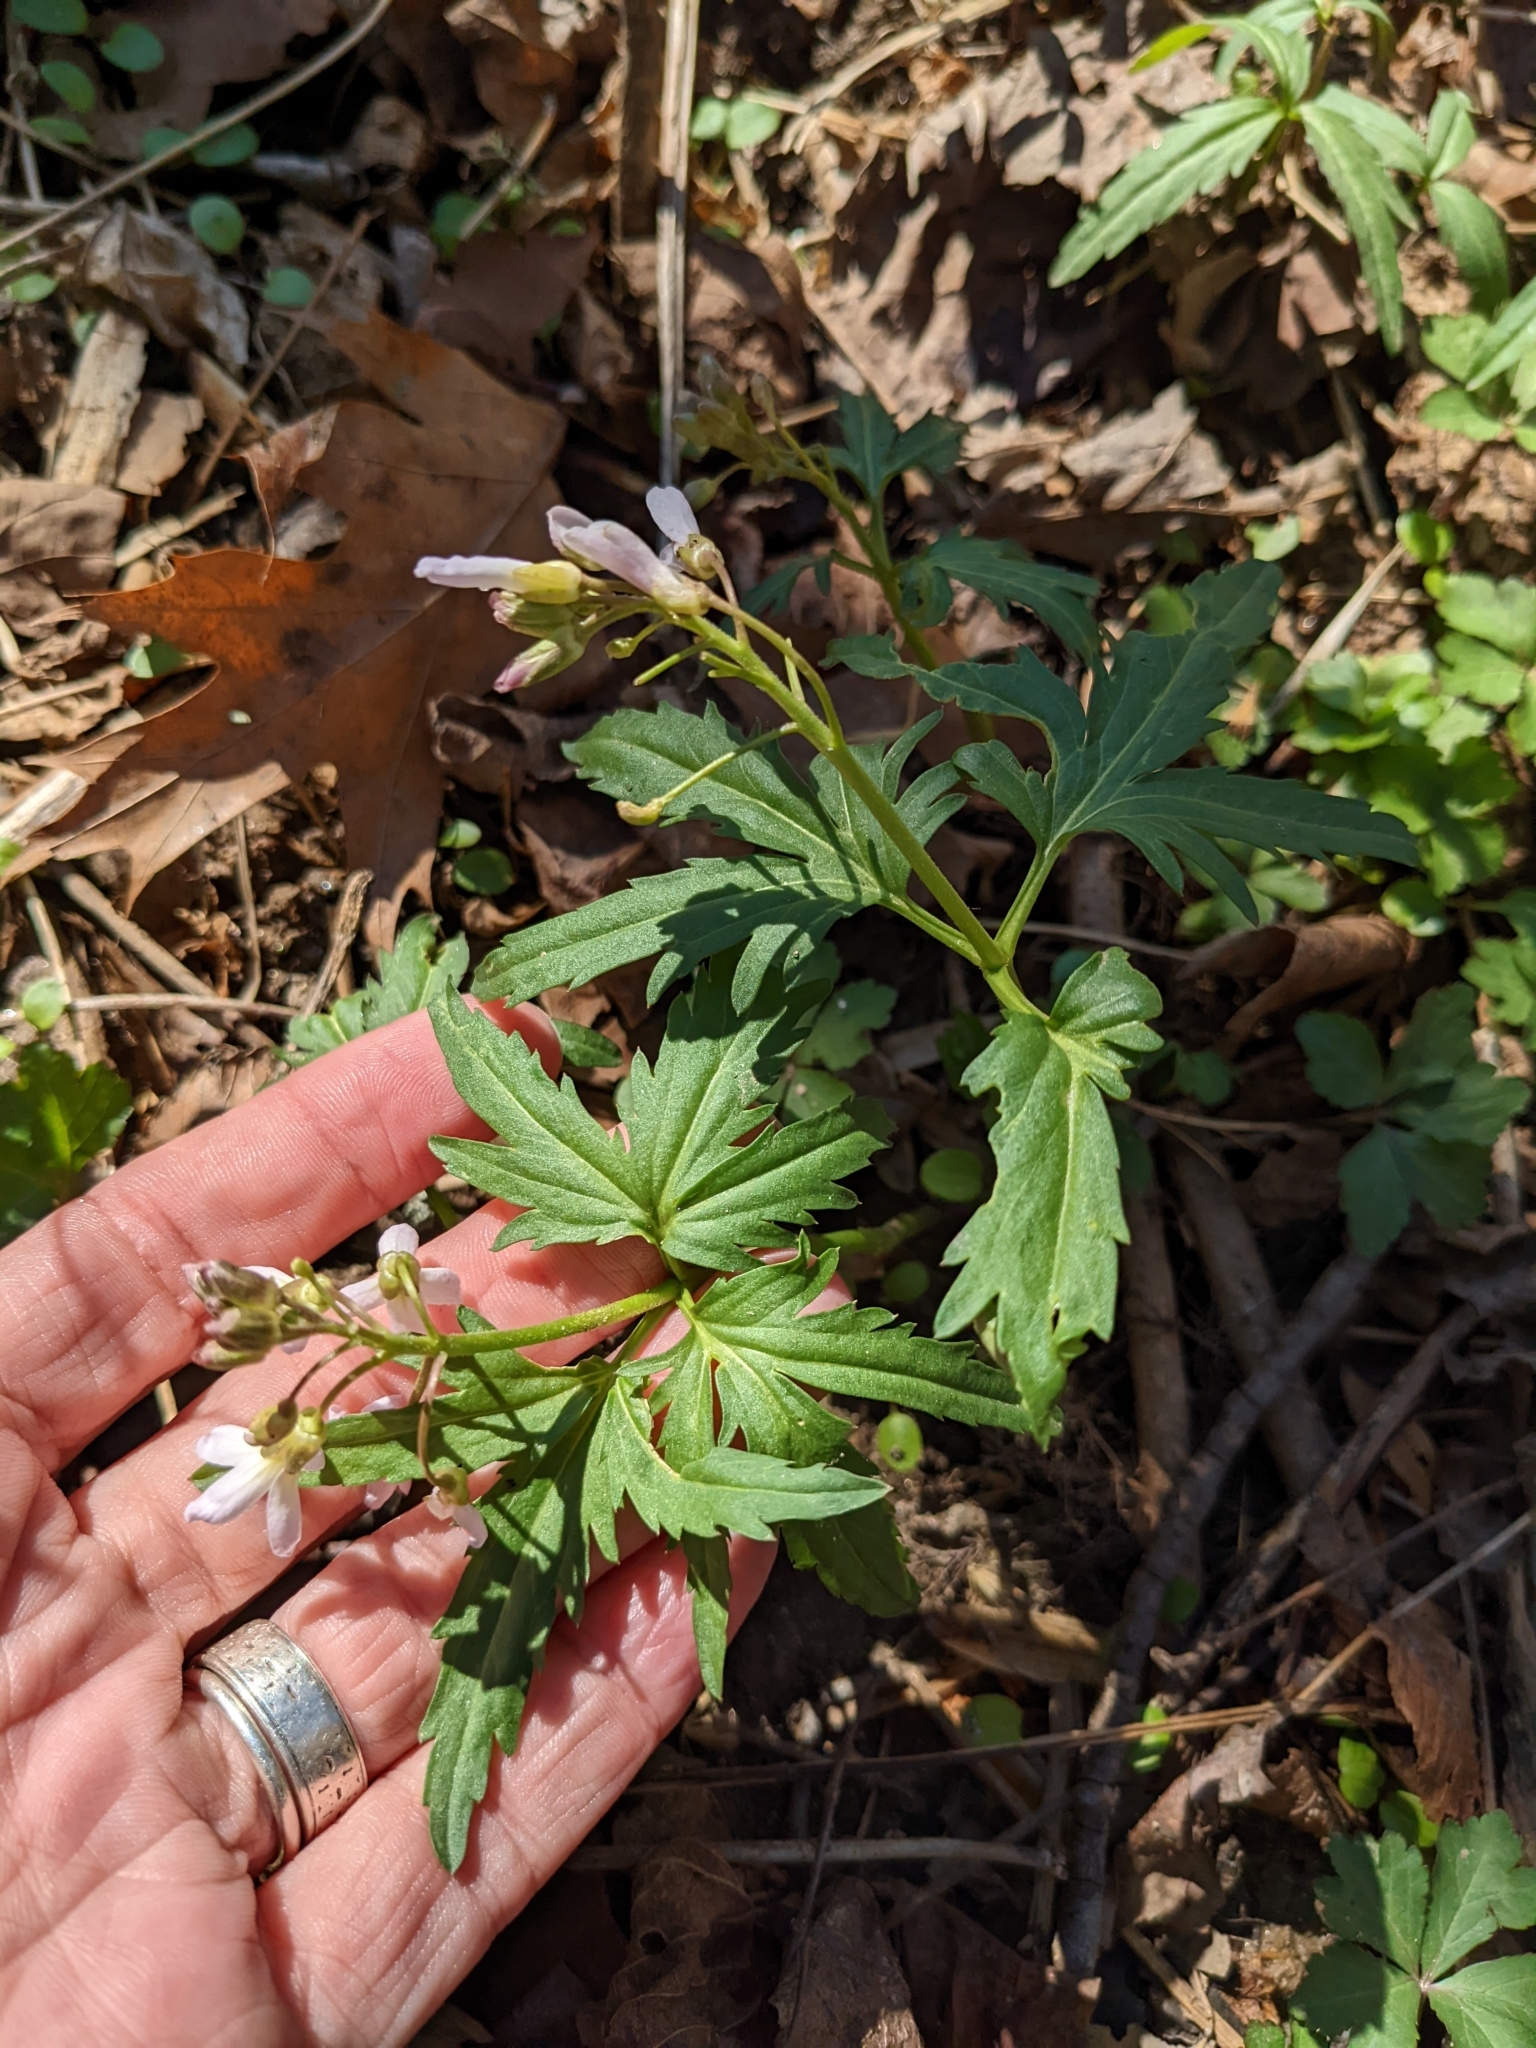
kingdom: Plantae
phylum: Tracheophyta
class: Magnoliopsida
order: Brassicales
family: Brassicaceae
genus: Cardamine
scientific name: Cardamine concatenata
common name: Cut-leaf toothcup
